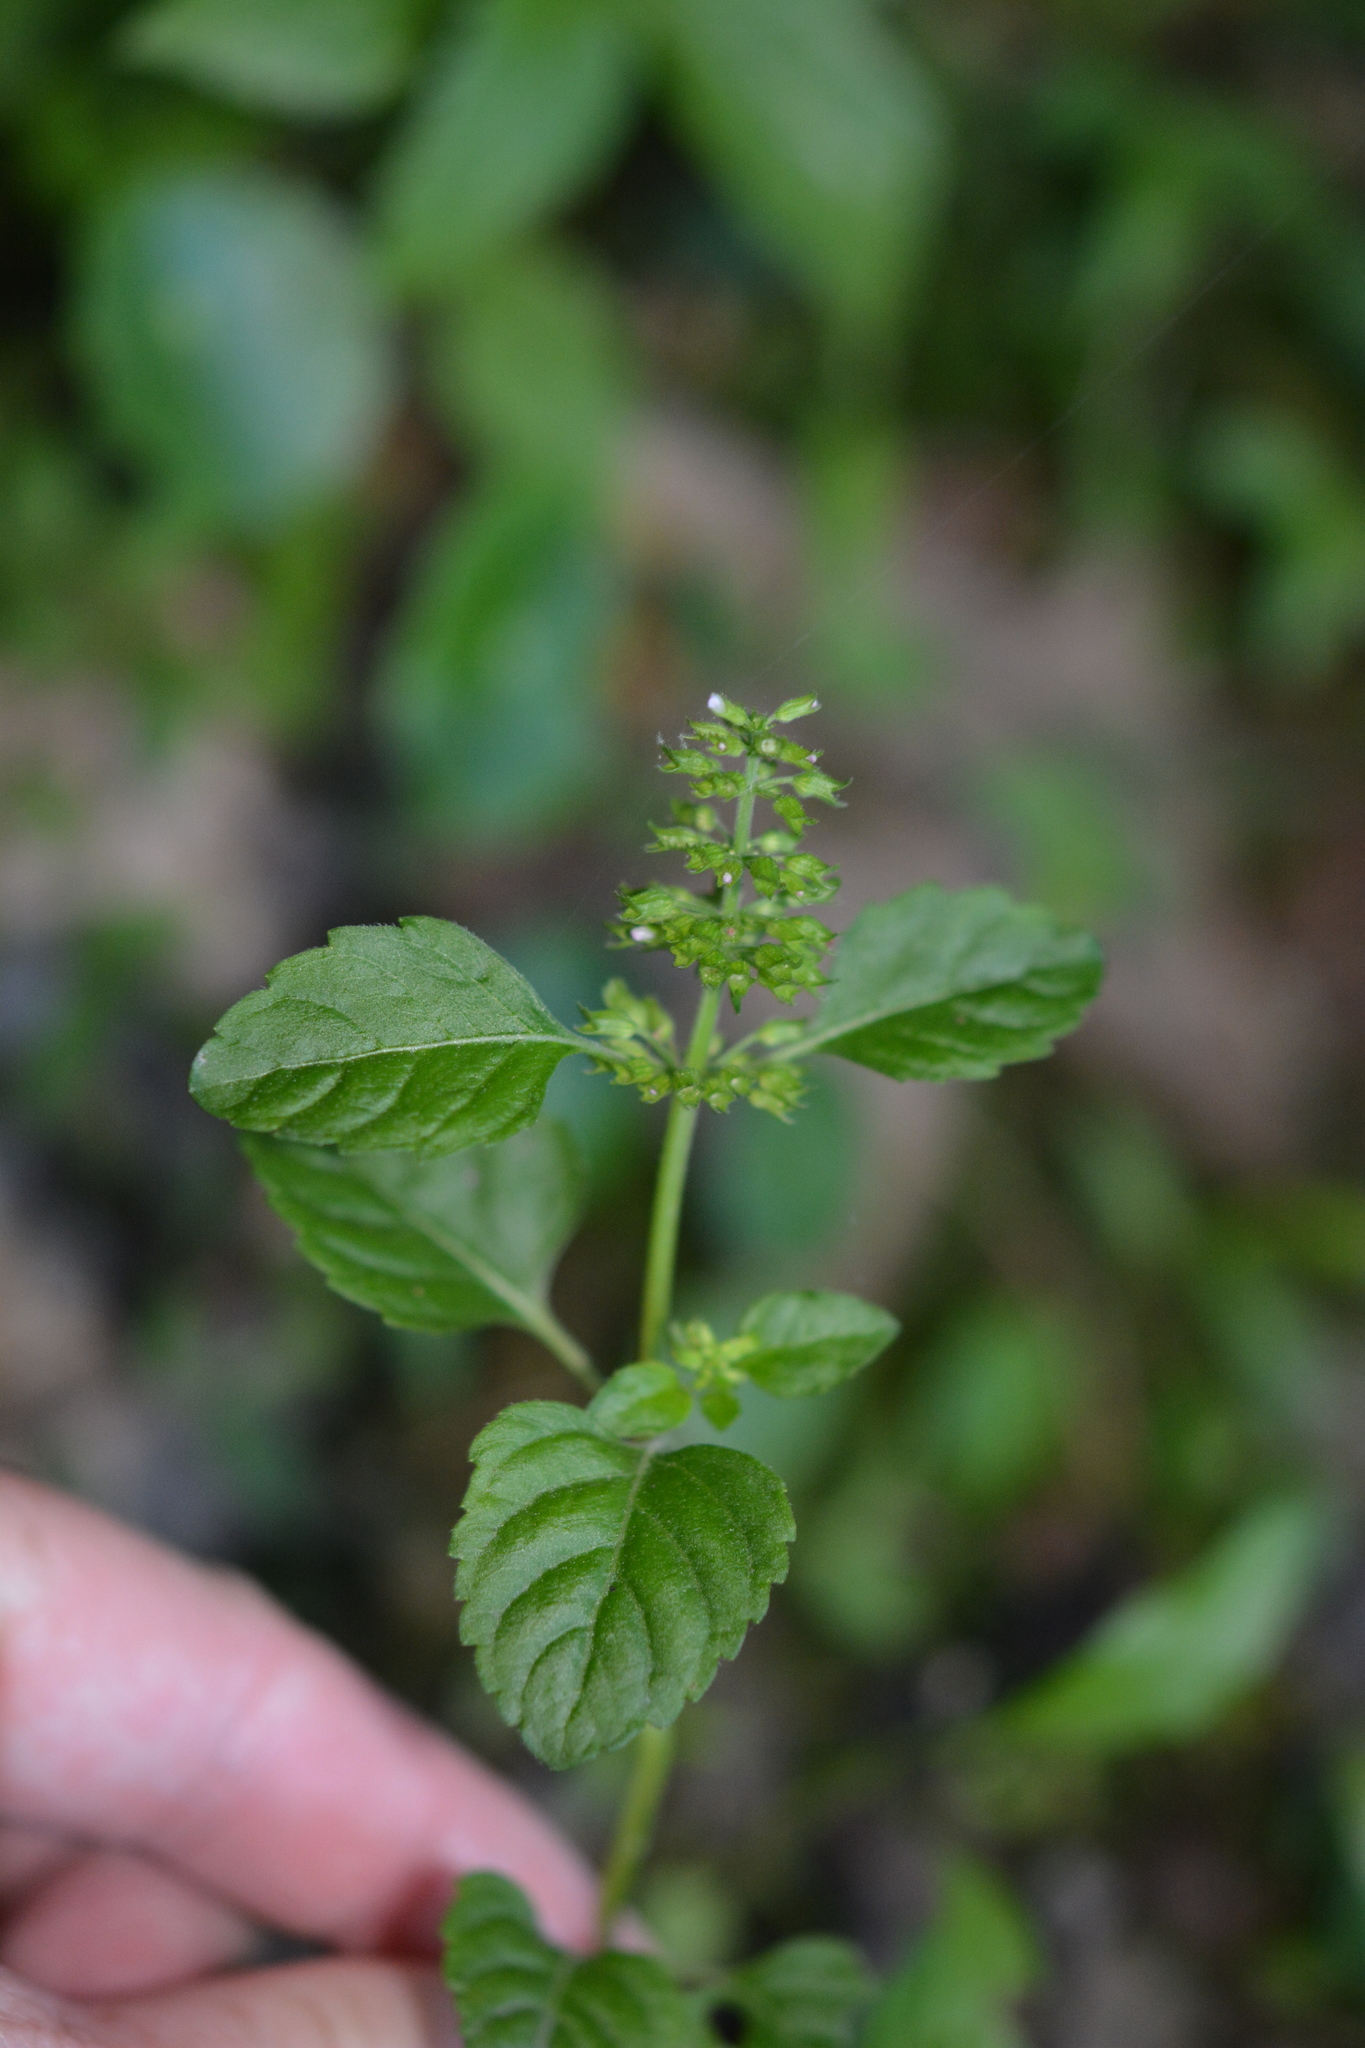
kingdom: Plantae
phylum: Tracheophyta
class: Magnoliopsida
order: Lamiales
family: Lamiaceae
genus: Clinopodium
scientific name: Clinopodium gracile
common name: Slender wild basil
